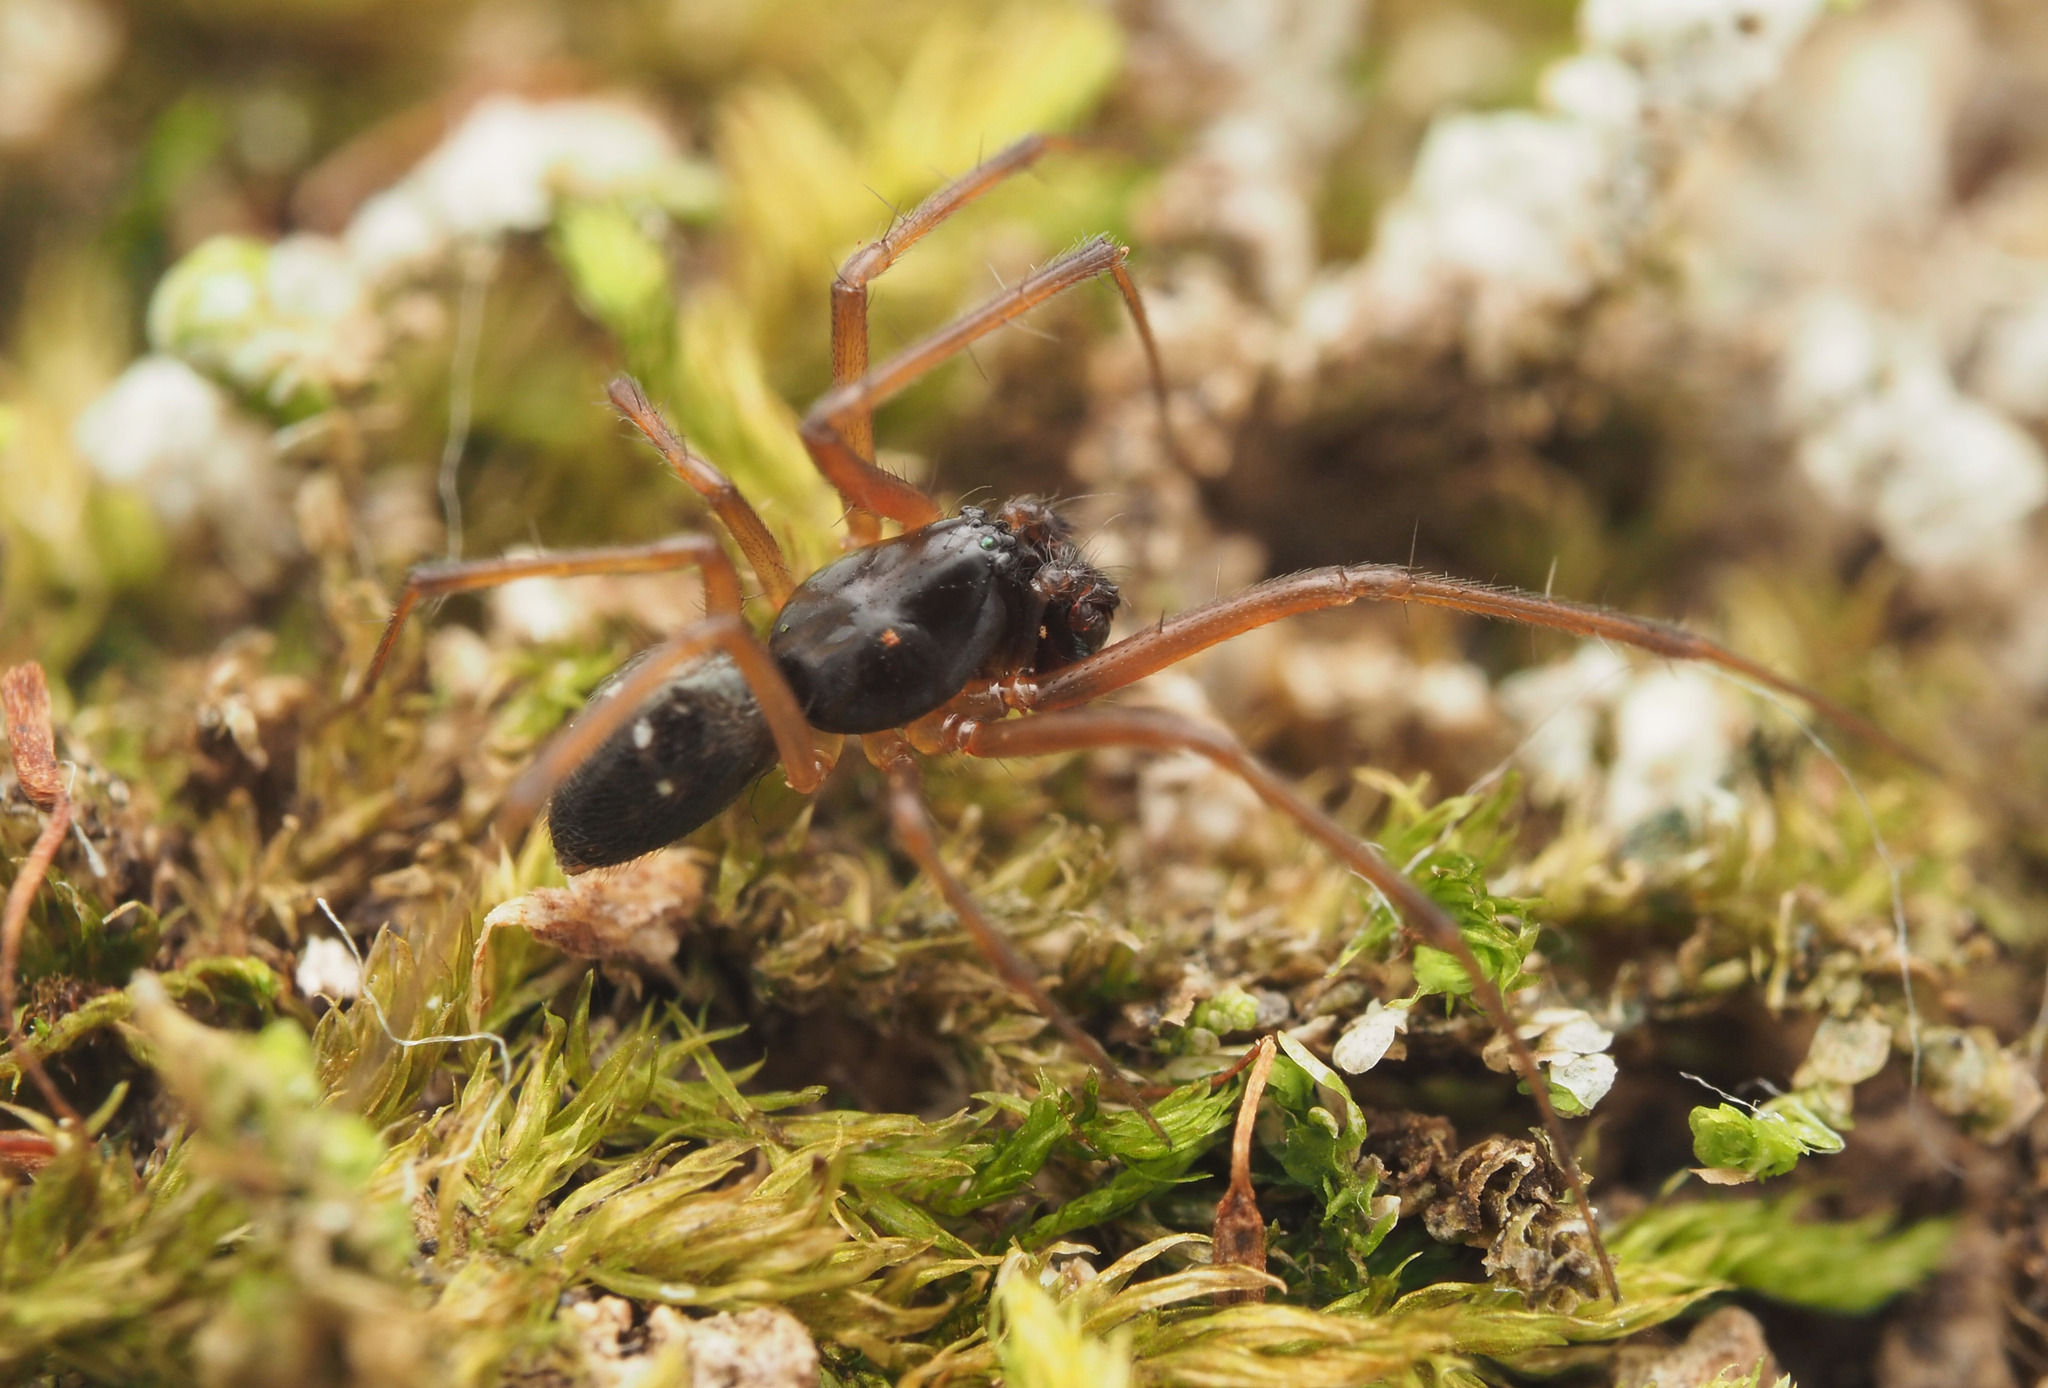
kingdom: Animalia
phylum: Arthropoda
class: Arachnida
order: Araneae
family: Linyphiidae
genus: Laperousea
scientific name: Laperousea
